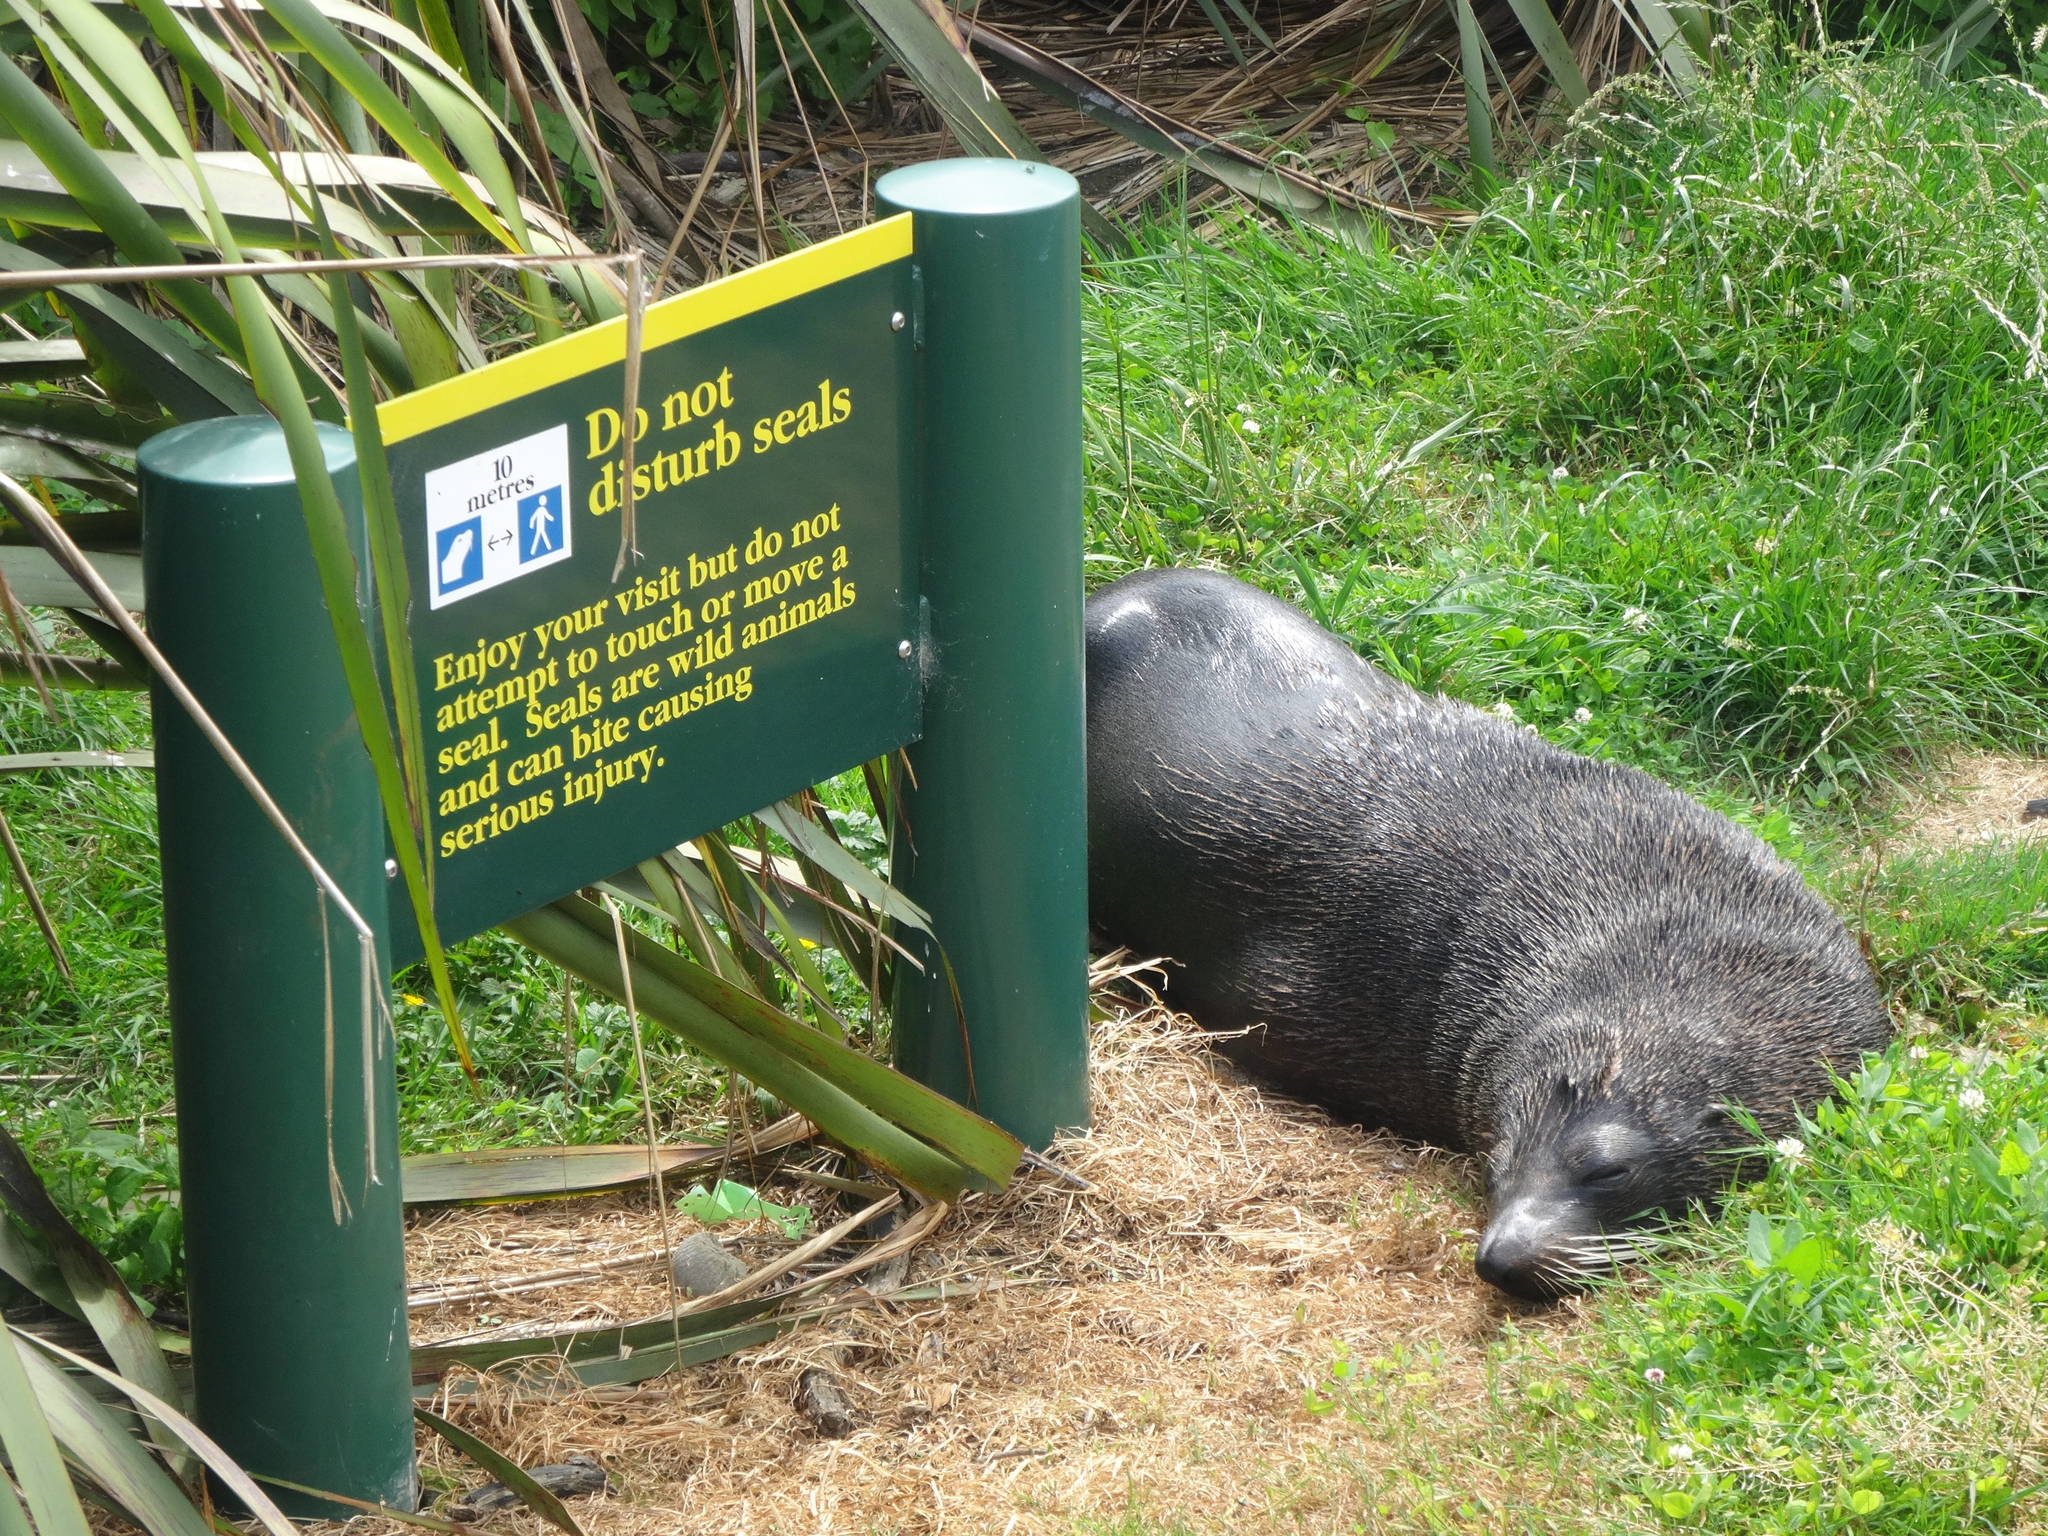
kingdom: Animalia
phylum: Chordata
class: Mammalia
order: Carnivora
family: Otariidae
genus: Arctocephalus
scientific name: Arctocephalus forsteri
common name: New zealand fur seal
